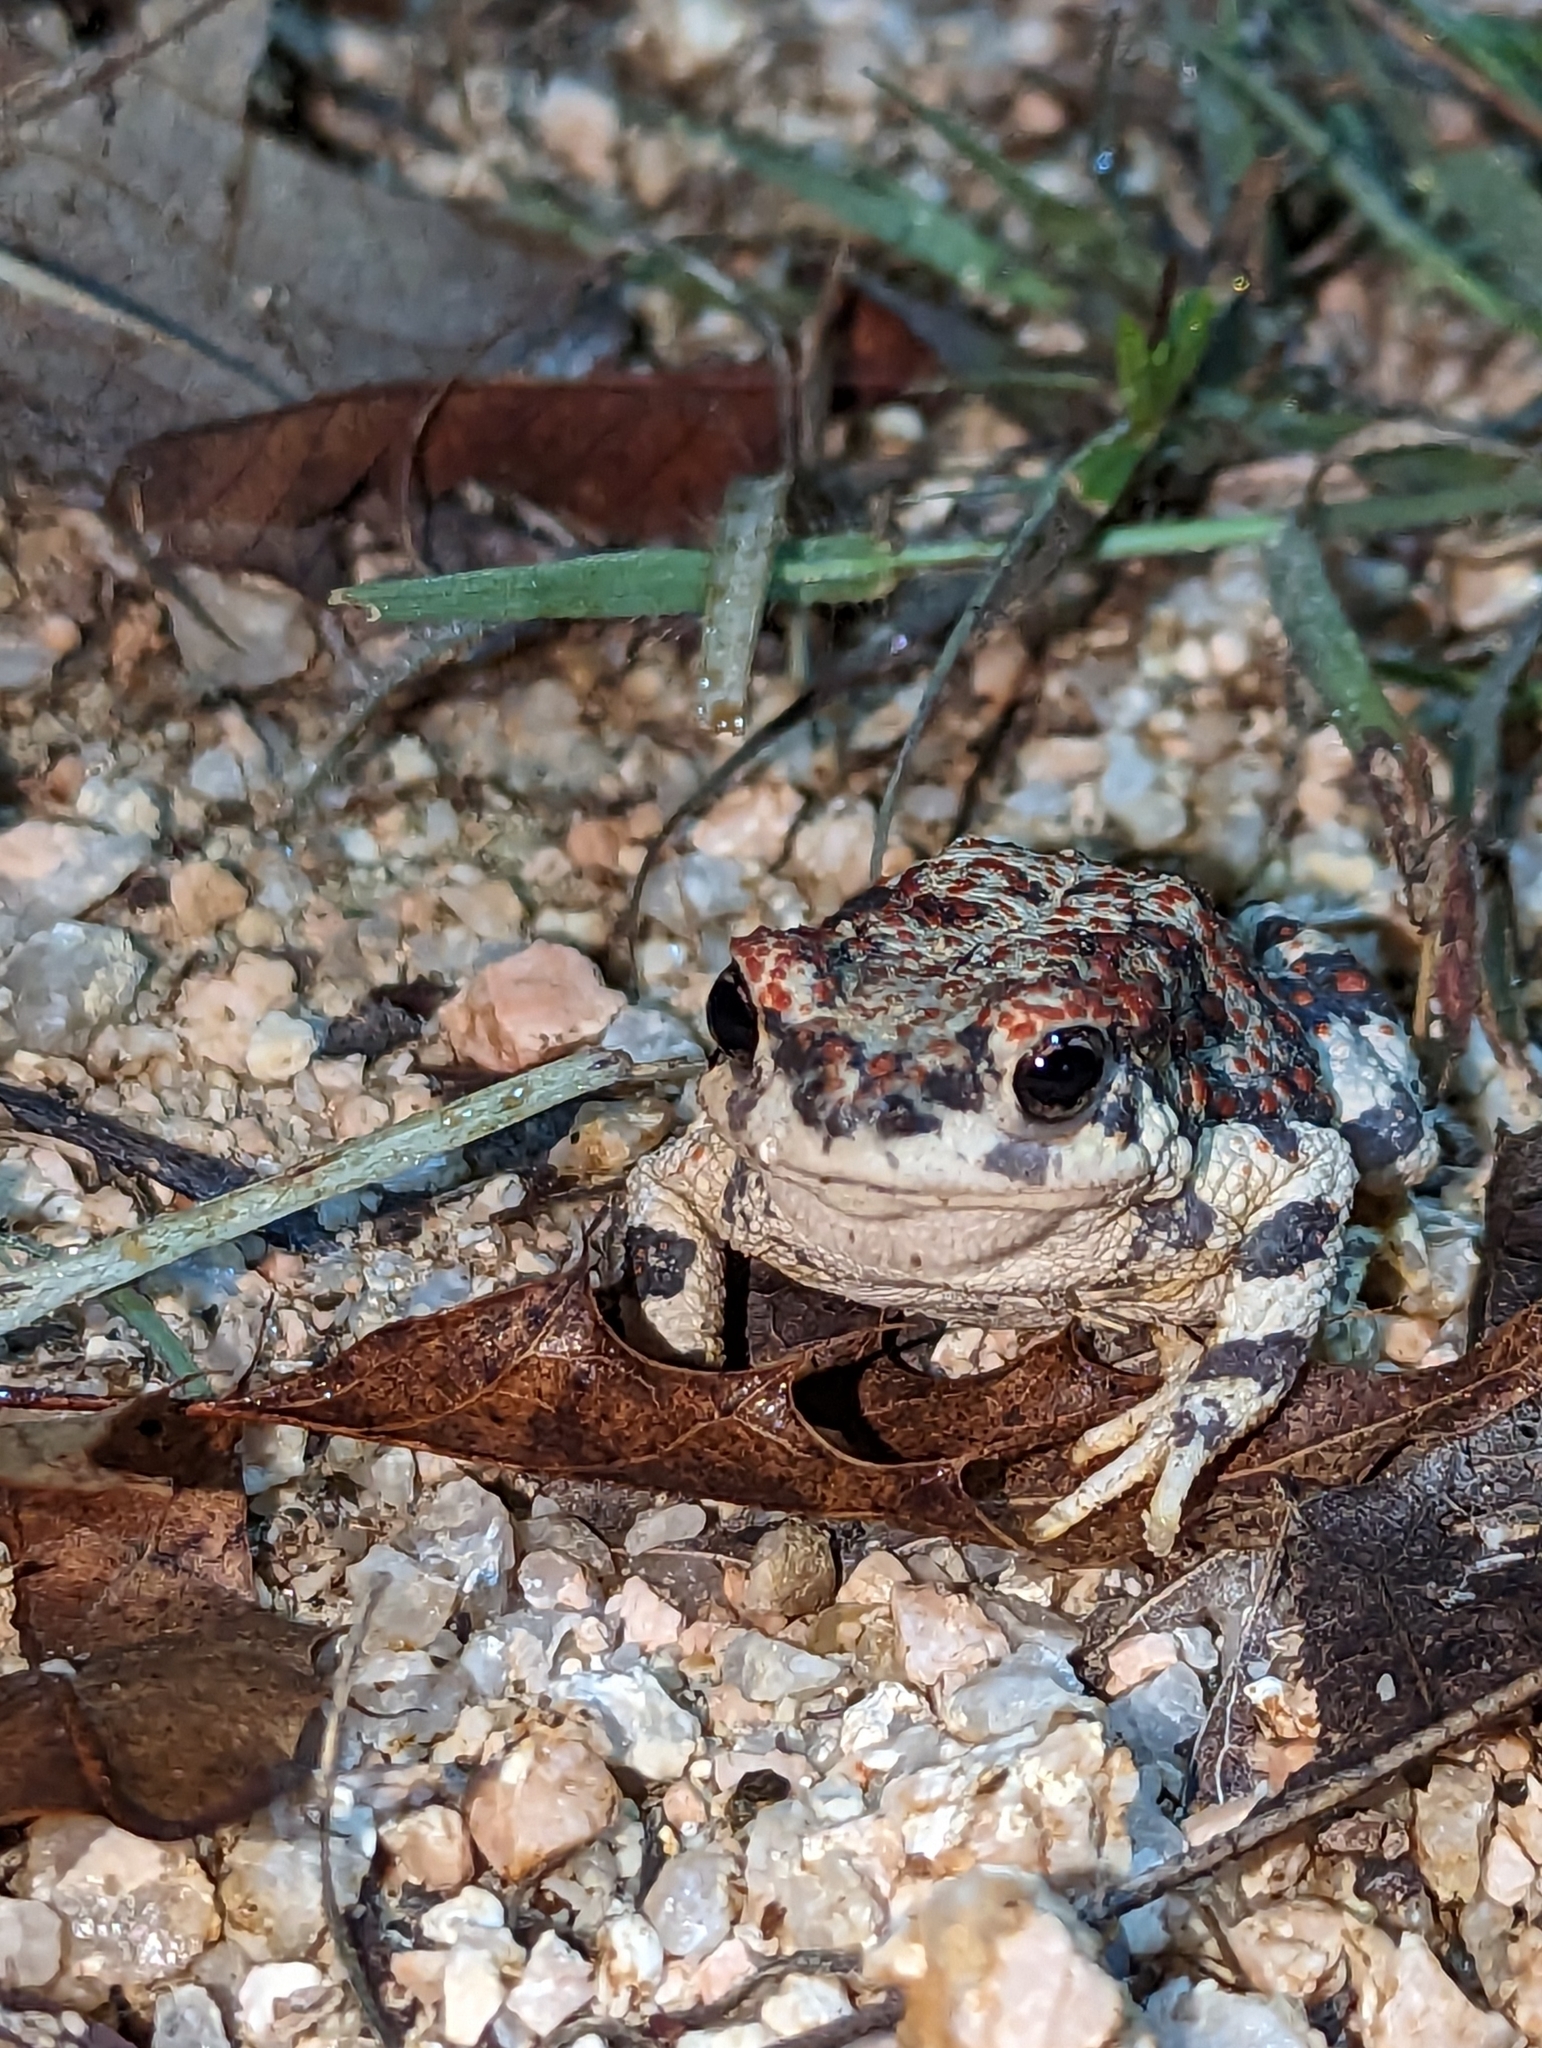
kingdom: Animalia
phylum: Chordata
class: Amphibia
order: Anura
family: Bufonidae
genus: Anaxyrus
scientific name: Anaxyrus punctatus
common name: Red-spotted toad
